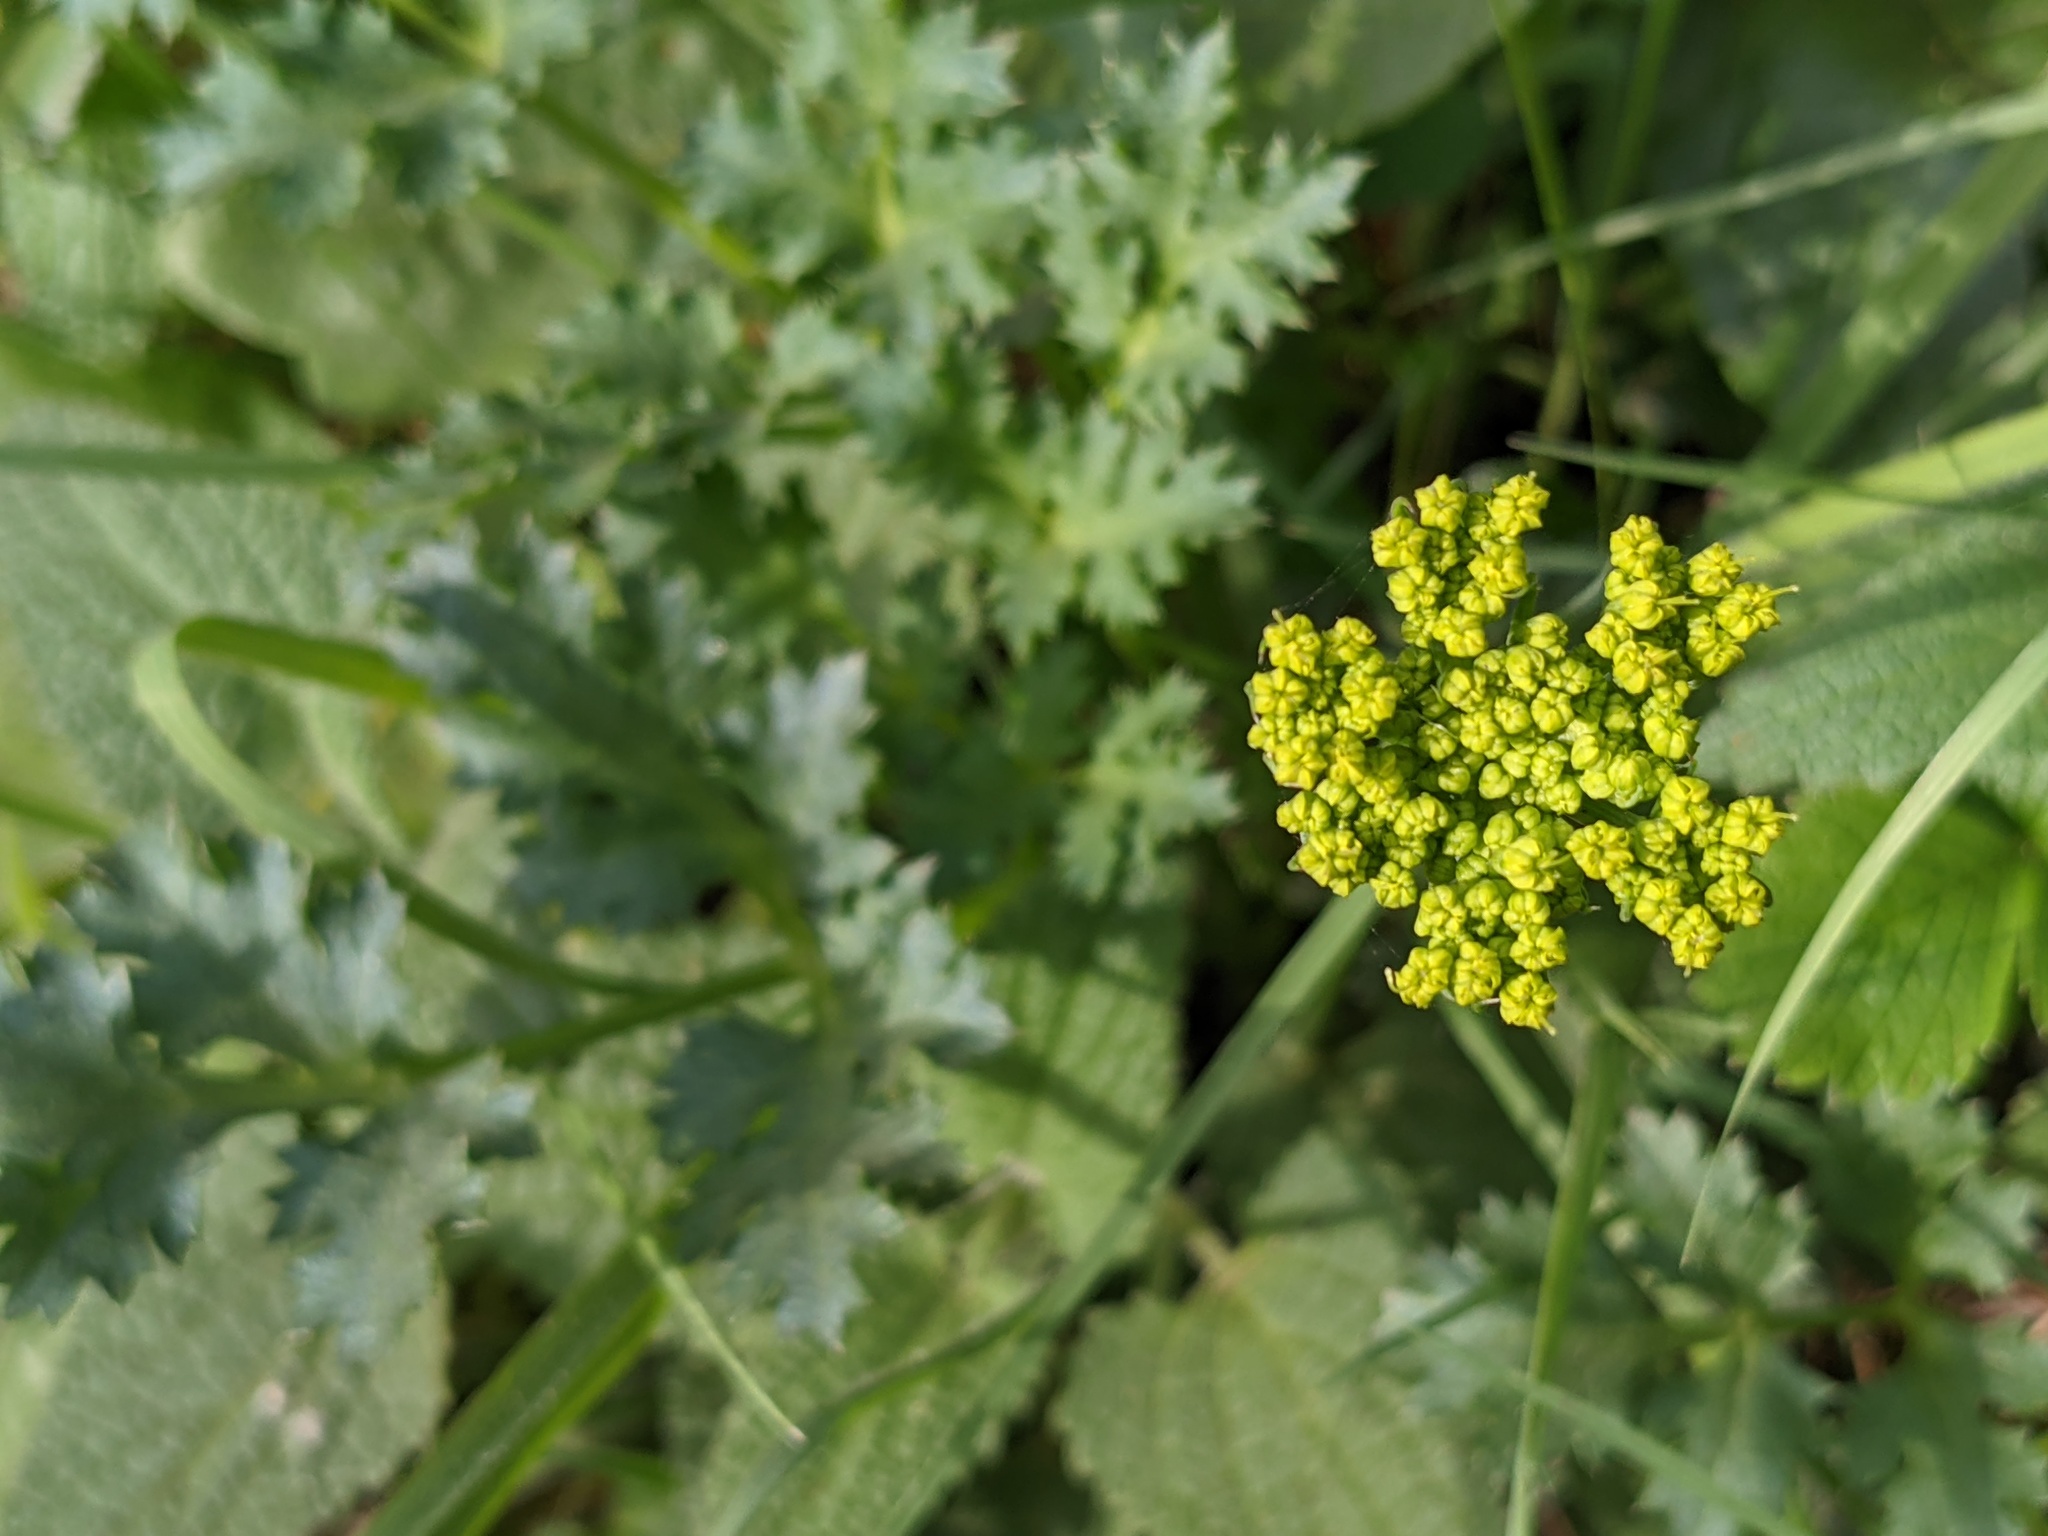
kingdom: Plantae
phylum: Tracheophyta
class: Magnoliopsida
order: Apiales
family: Apiaceae
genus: Lomatium
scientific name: Lomatium parvifolium
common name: Small-leaf lomatium
